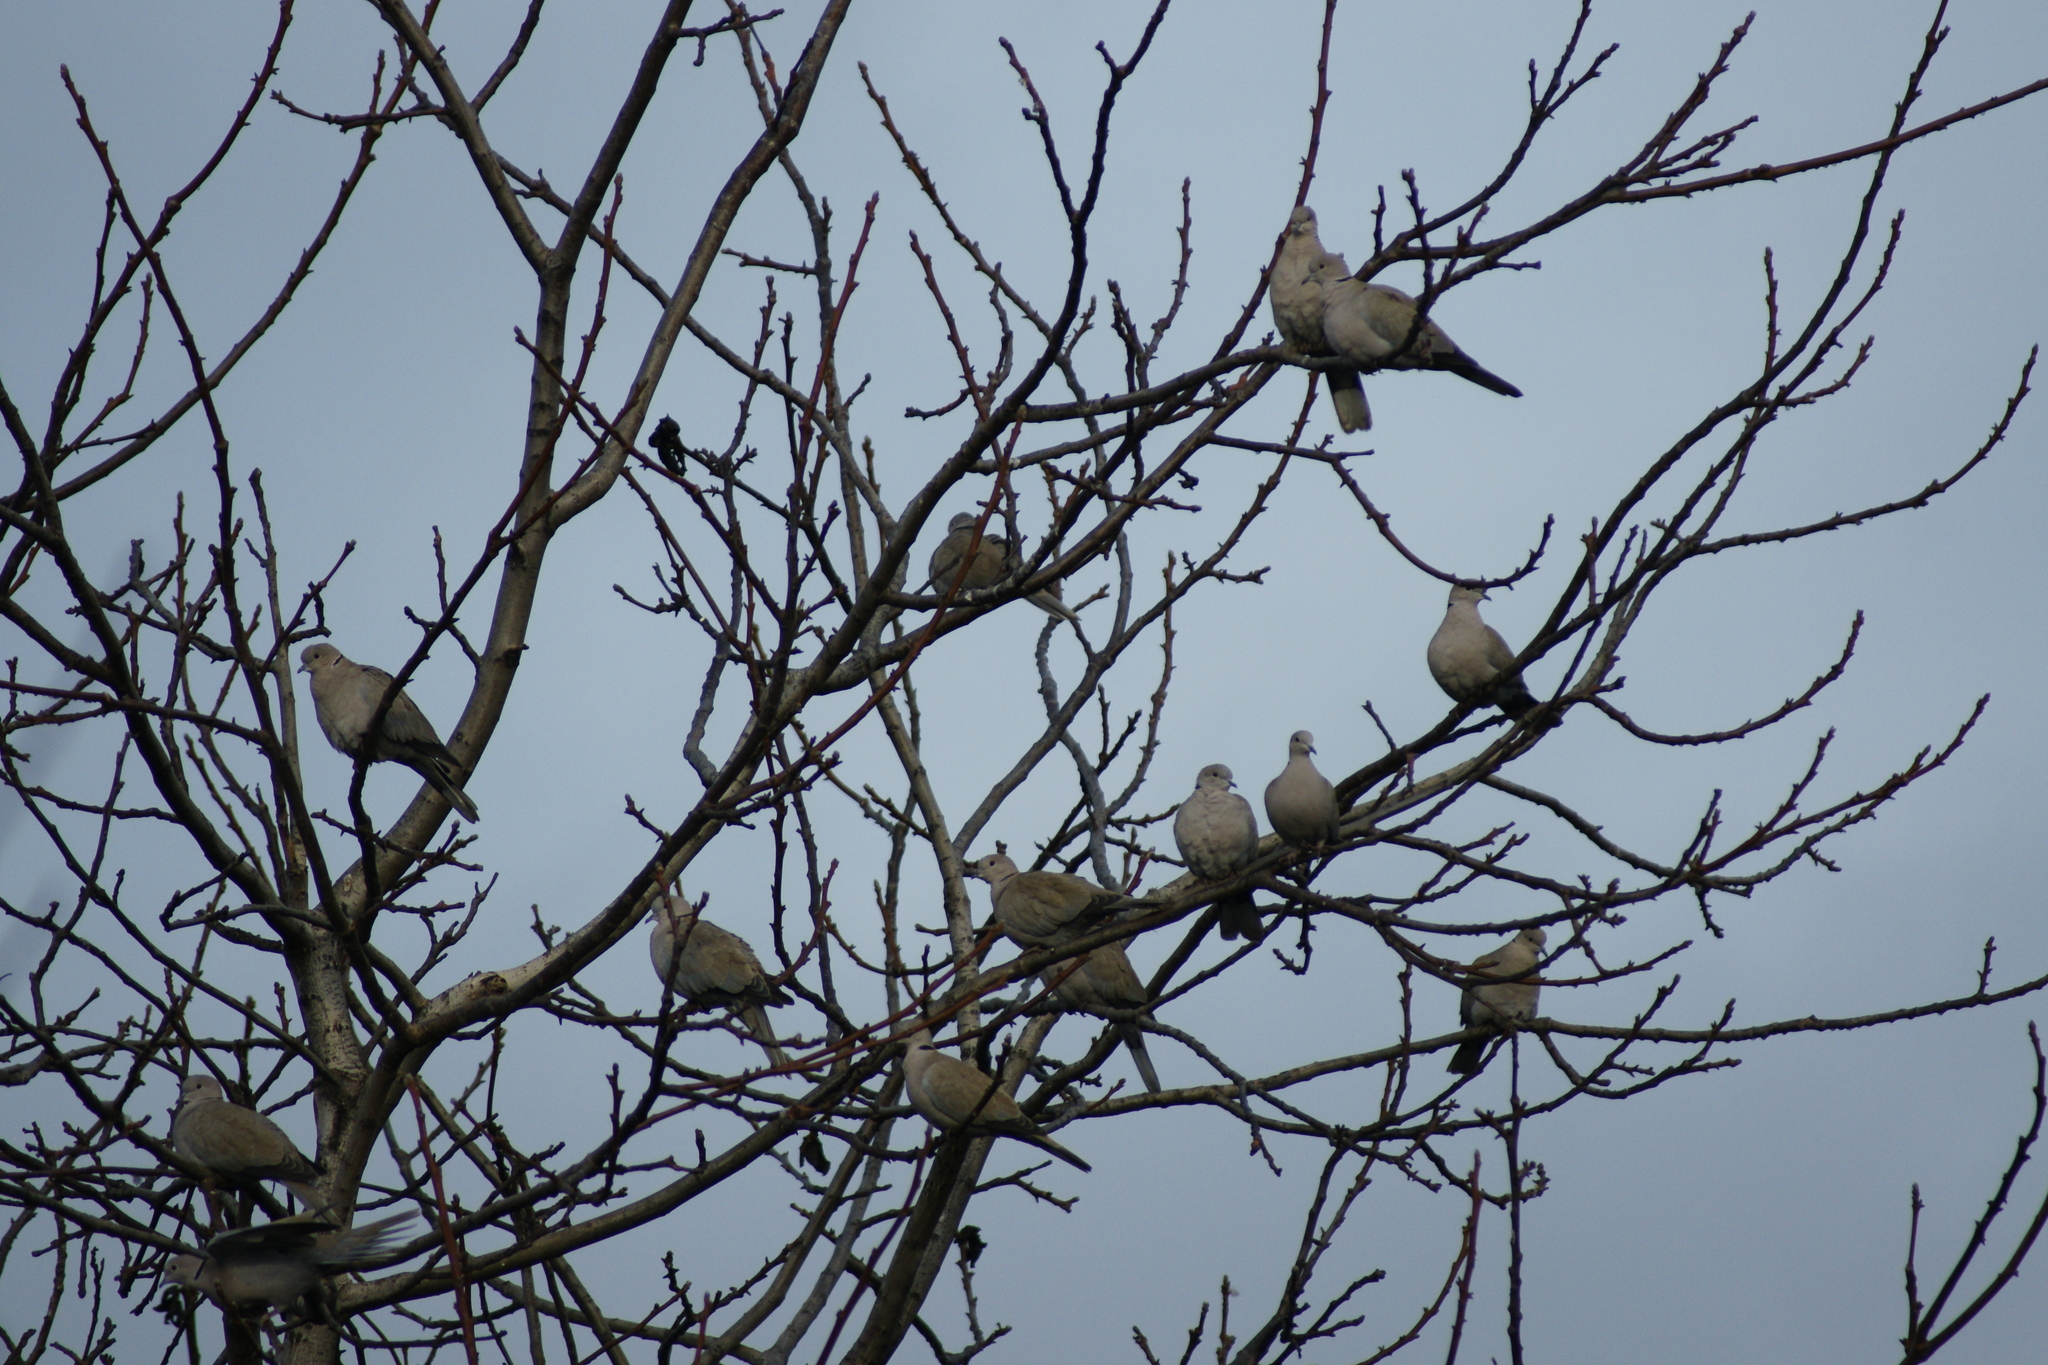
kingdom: Animalia
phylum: Chordata
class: Aves
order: Columbiformes
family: Columbidae
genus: Streptopelia
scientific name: Streptopelia decaocto
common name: Eurasian collared dove
